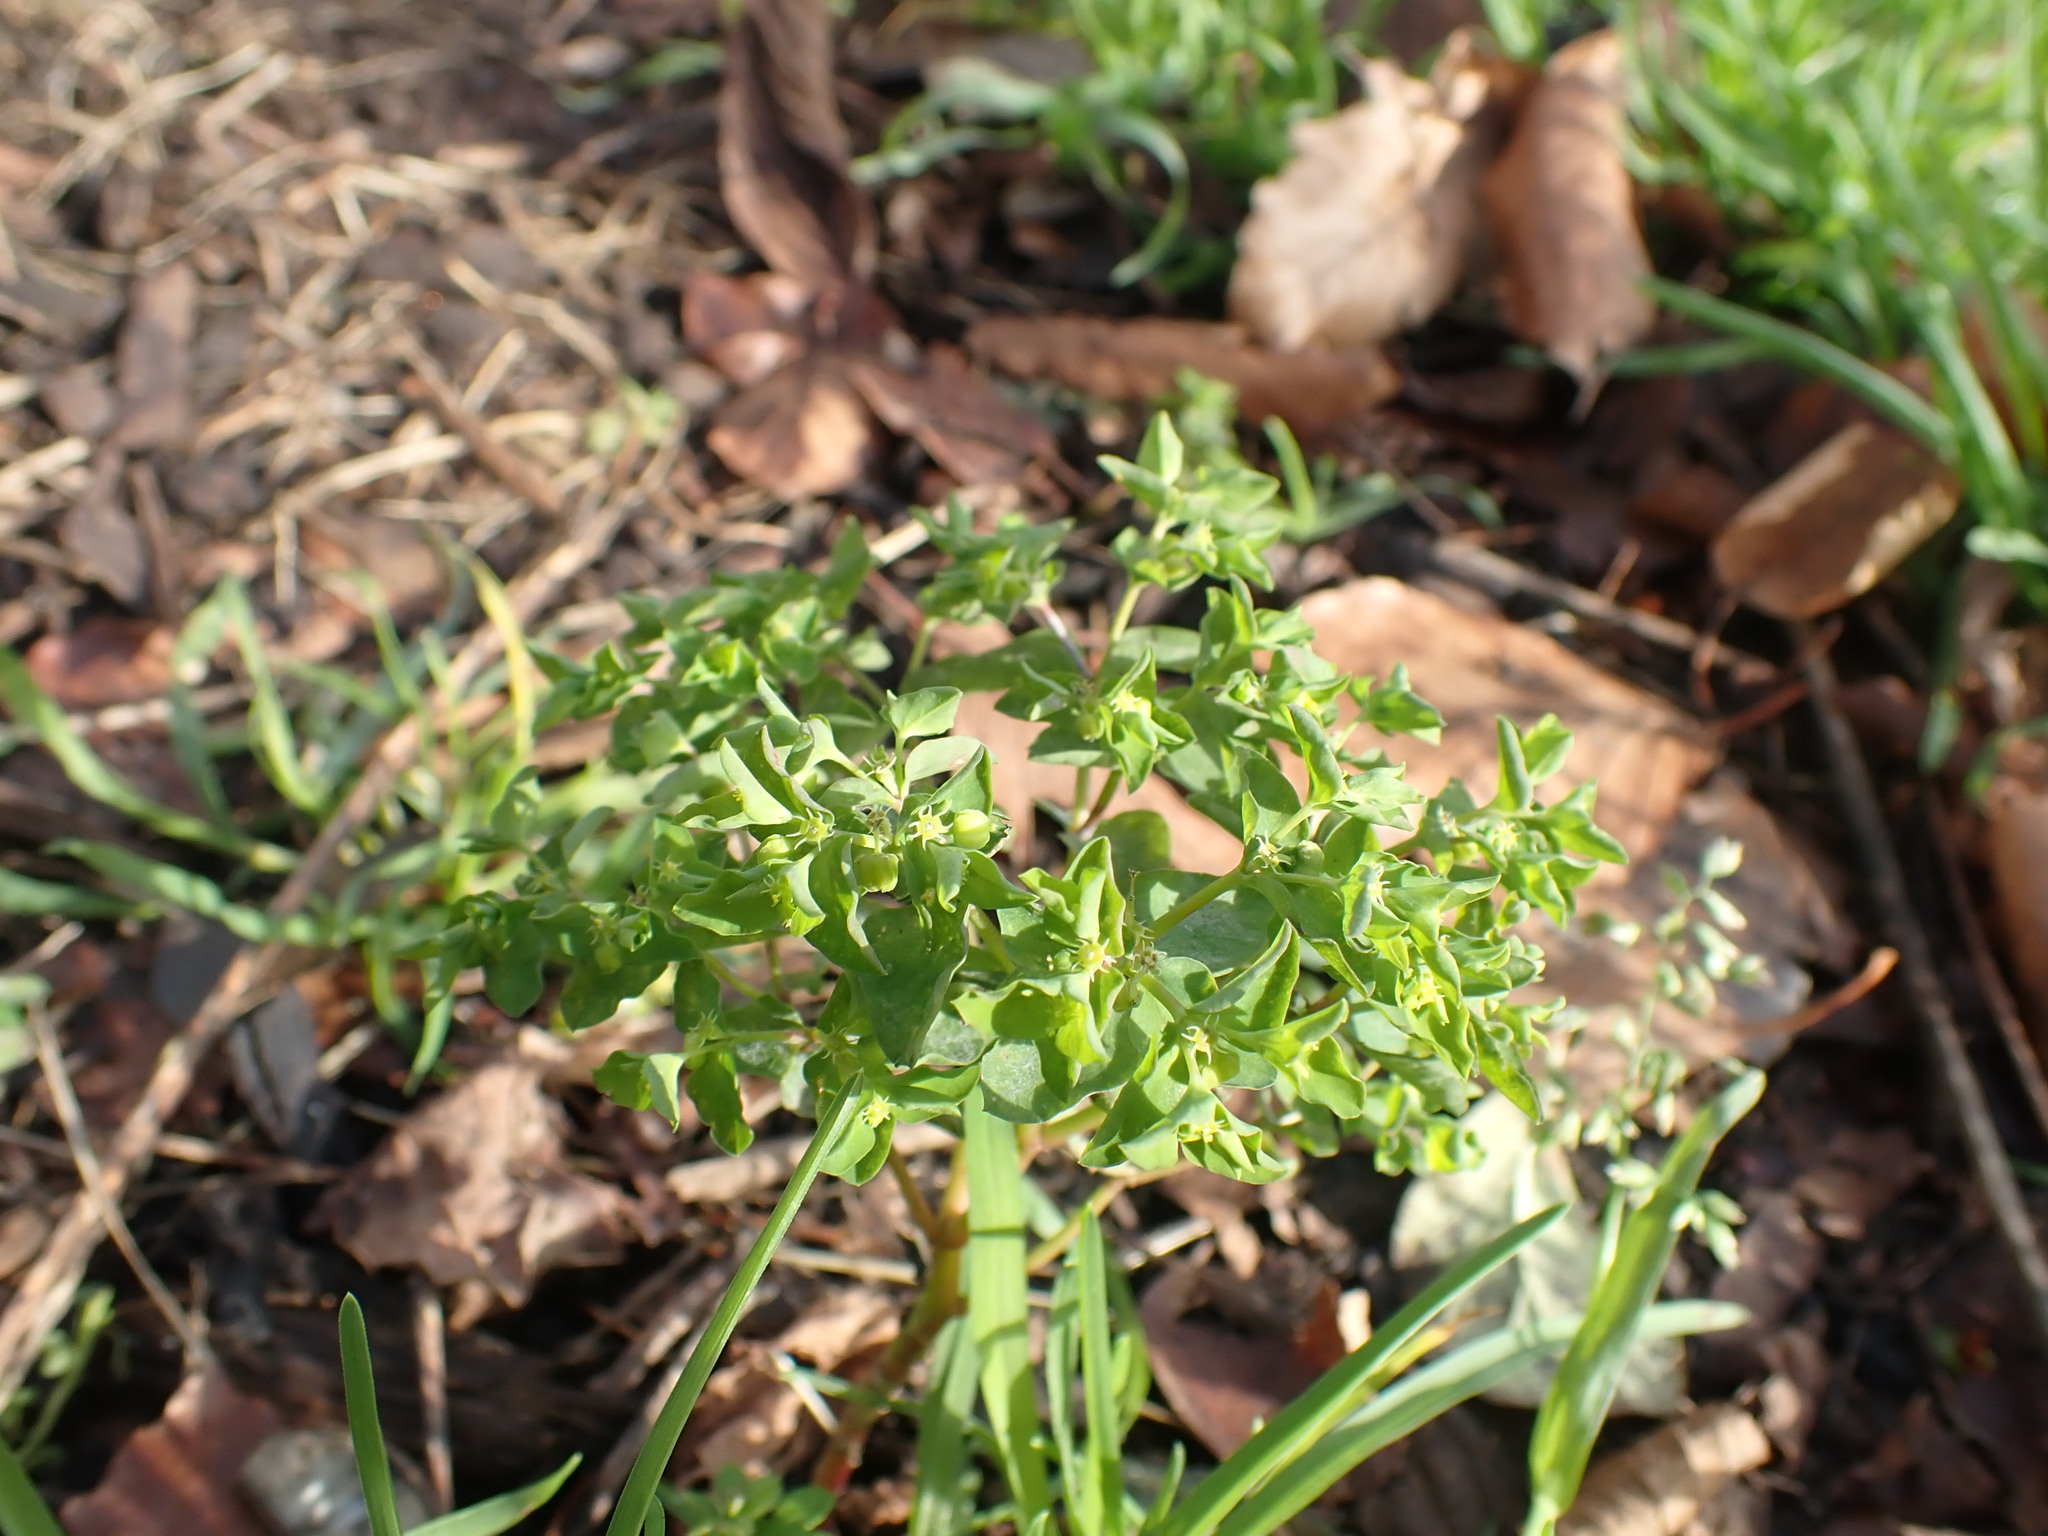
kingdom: Plantae
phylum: Tracheophyta
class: Magnoliopsida
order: Malpighiales
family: Euphorbiaceae
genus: Euphorbia
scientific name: Euphorbia peplus
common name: Petty spurge
